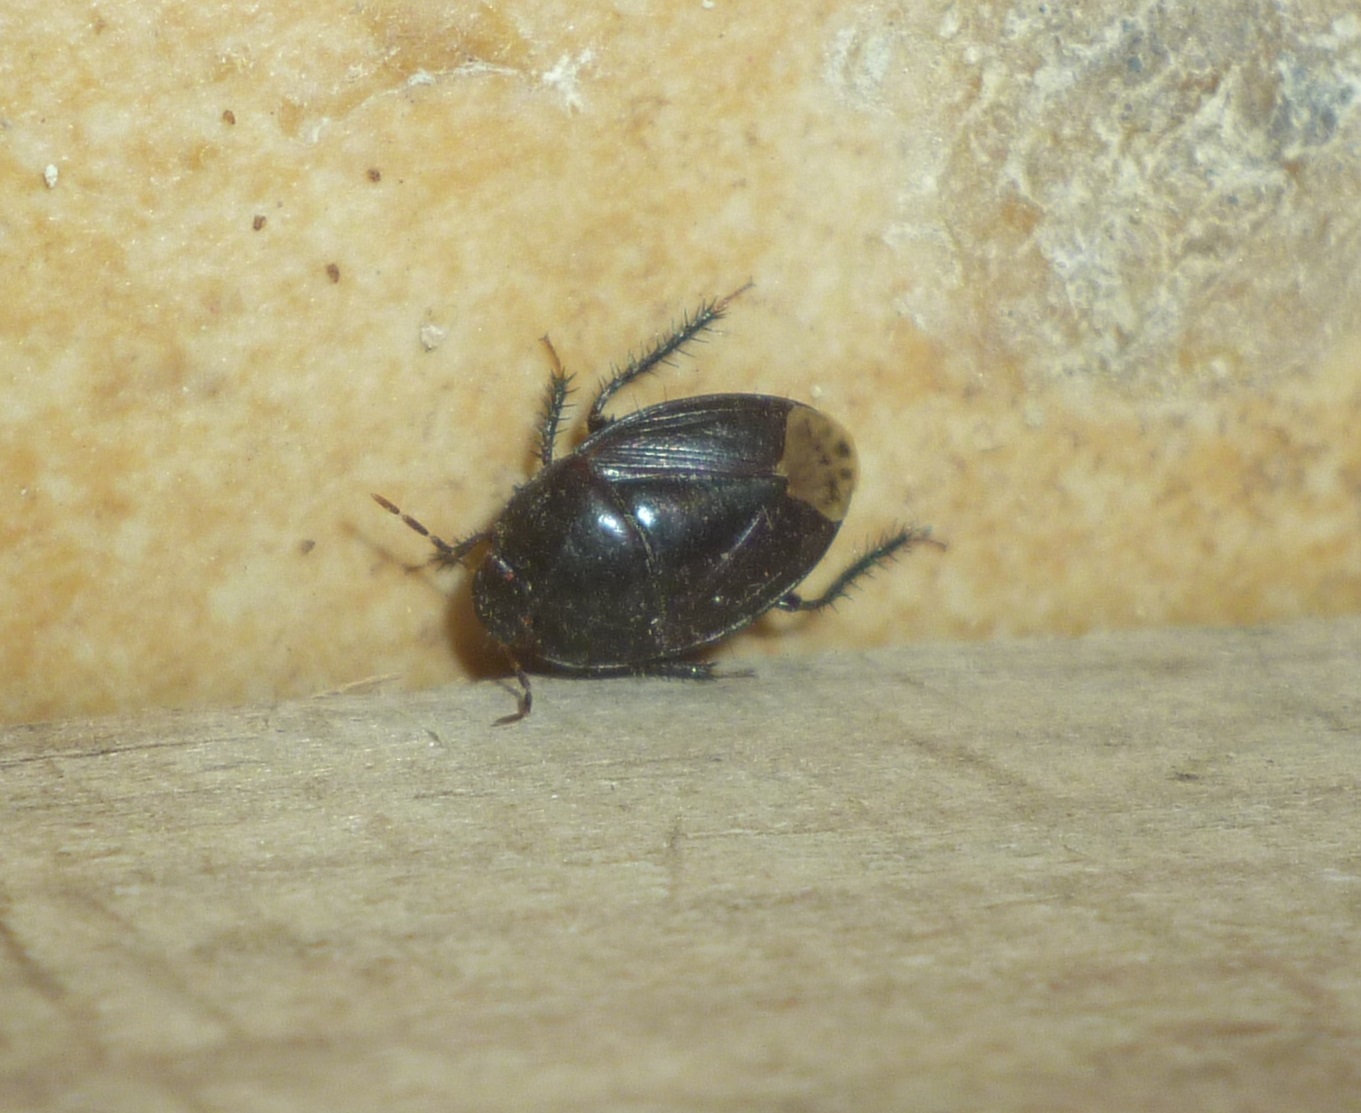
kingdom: Animalia
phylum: Arthropoda
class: Insecta
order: Hemiptera
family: Cydnidae
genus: Macroscytus
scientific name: Macroscytus brunneus
